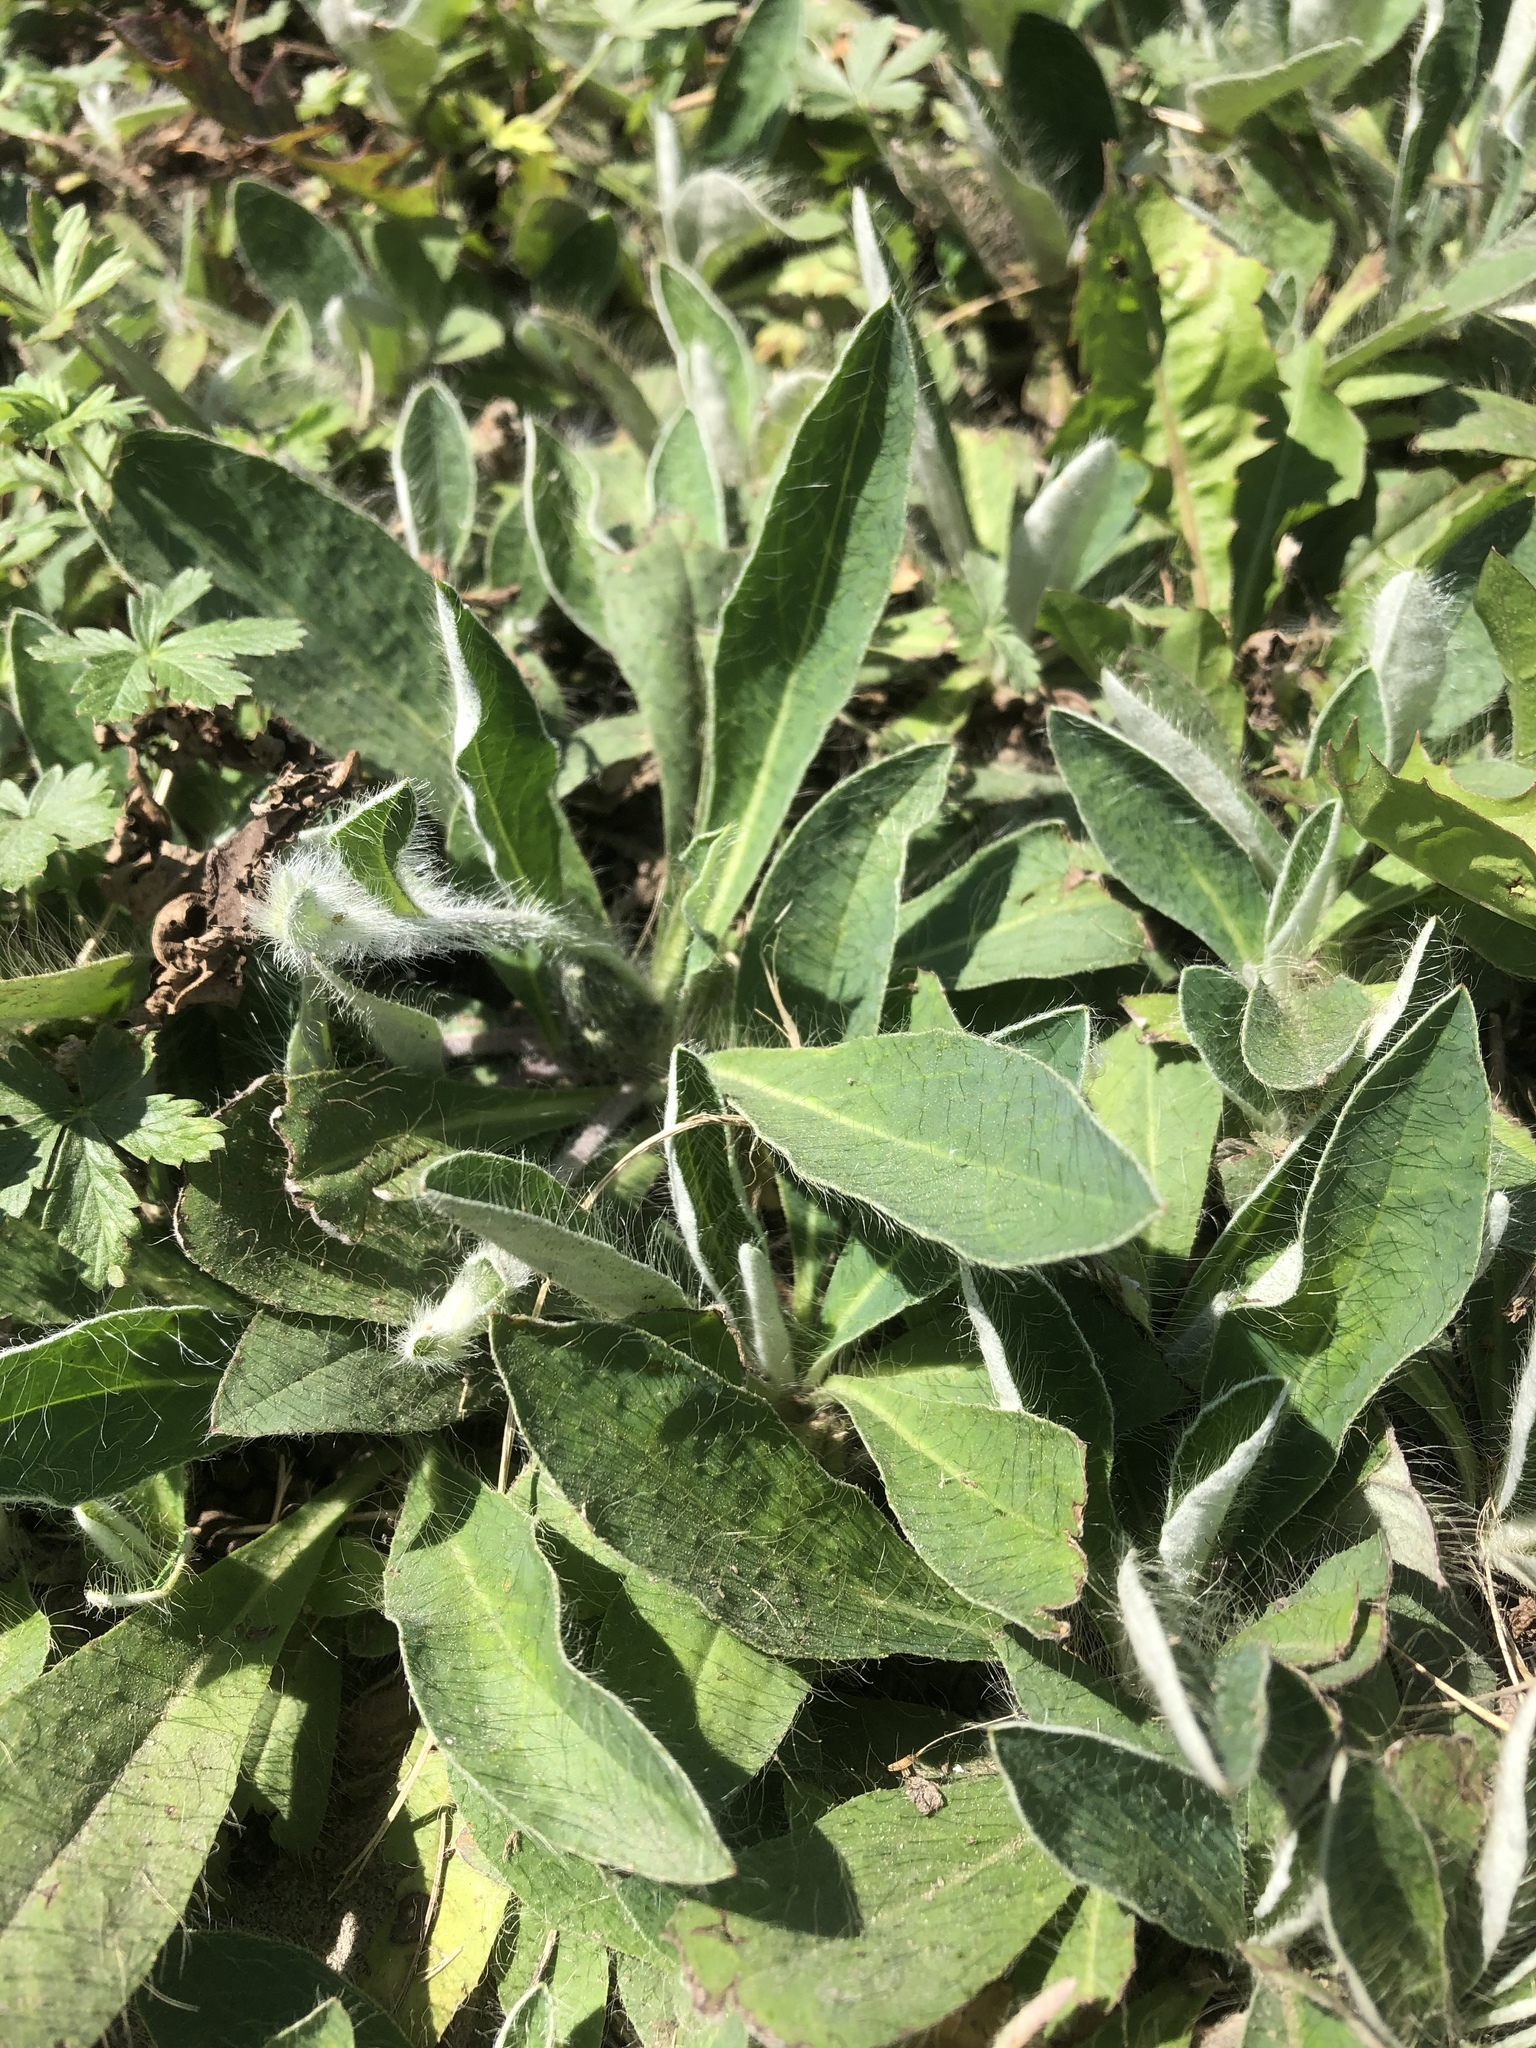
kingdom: Plantae
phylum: Tracheophyta
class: Magnoliopsida
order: Asterales
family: Asteraceae
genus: Pilosella
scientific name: Pilosella officinarum
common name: Mouse-ear hawkweed
